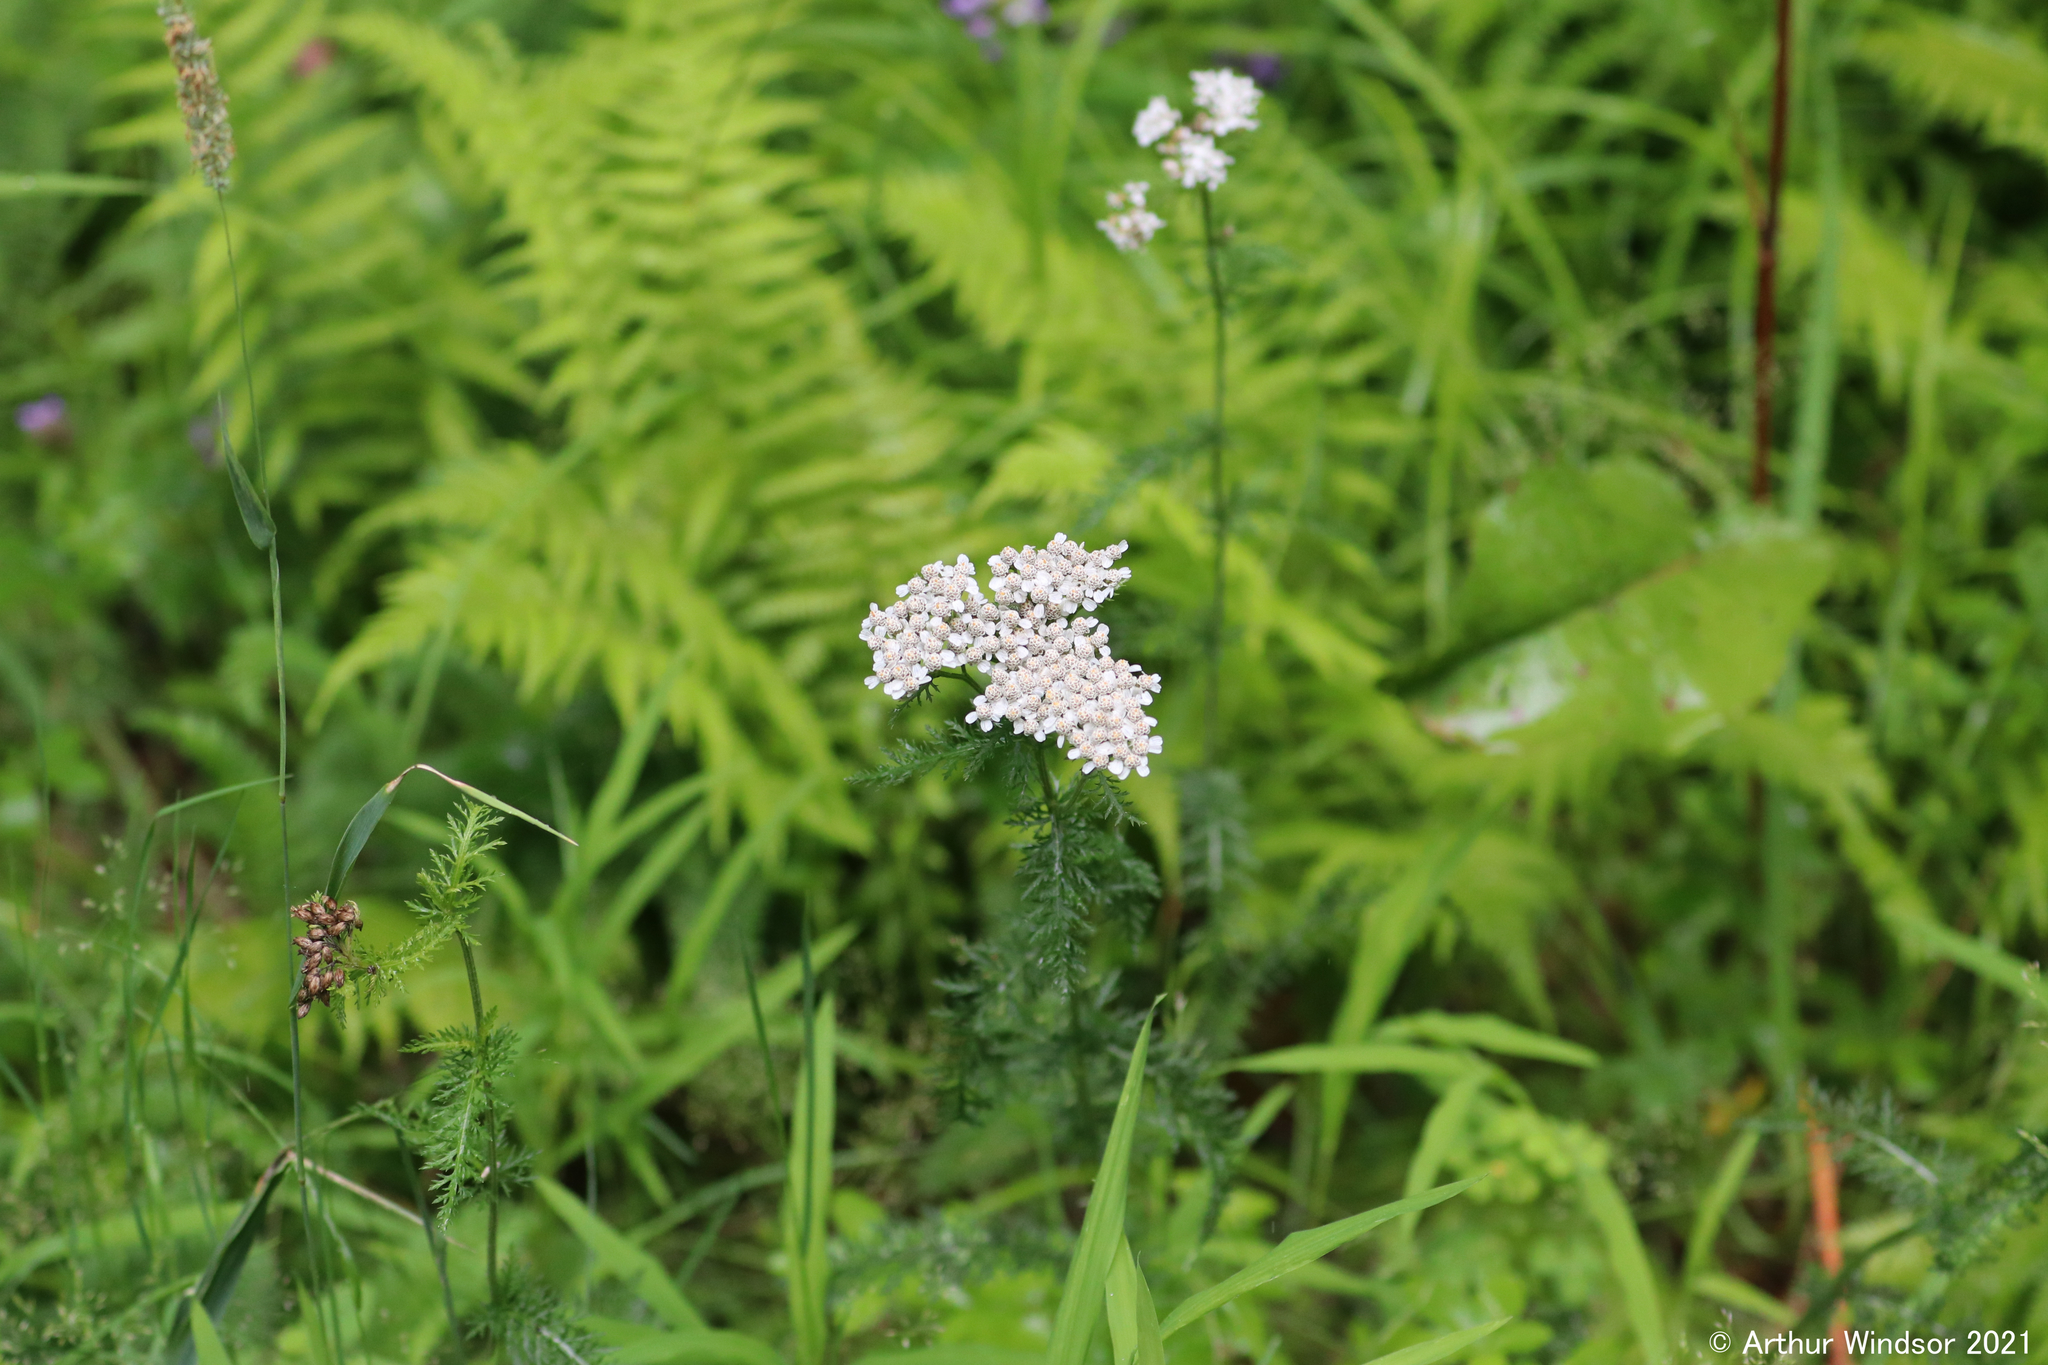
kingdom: Plantae
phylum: Tracheophyta
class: Magnoliopsida
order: Asterales
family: Asteraceae
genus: Achillea
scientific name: Achillea millefolium
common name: Yarrow
